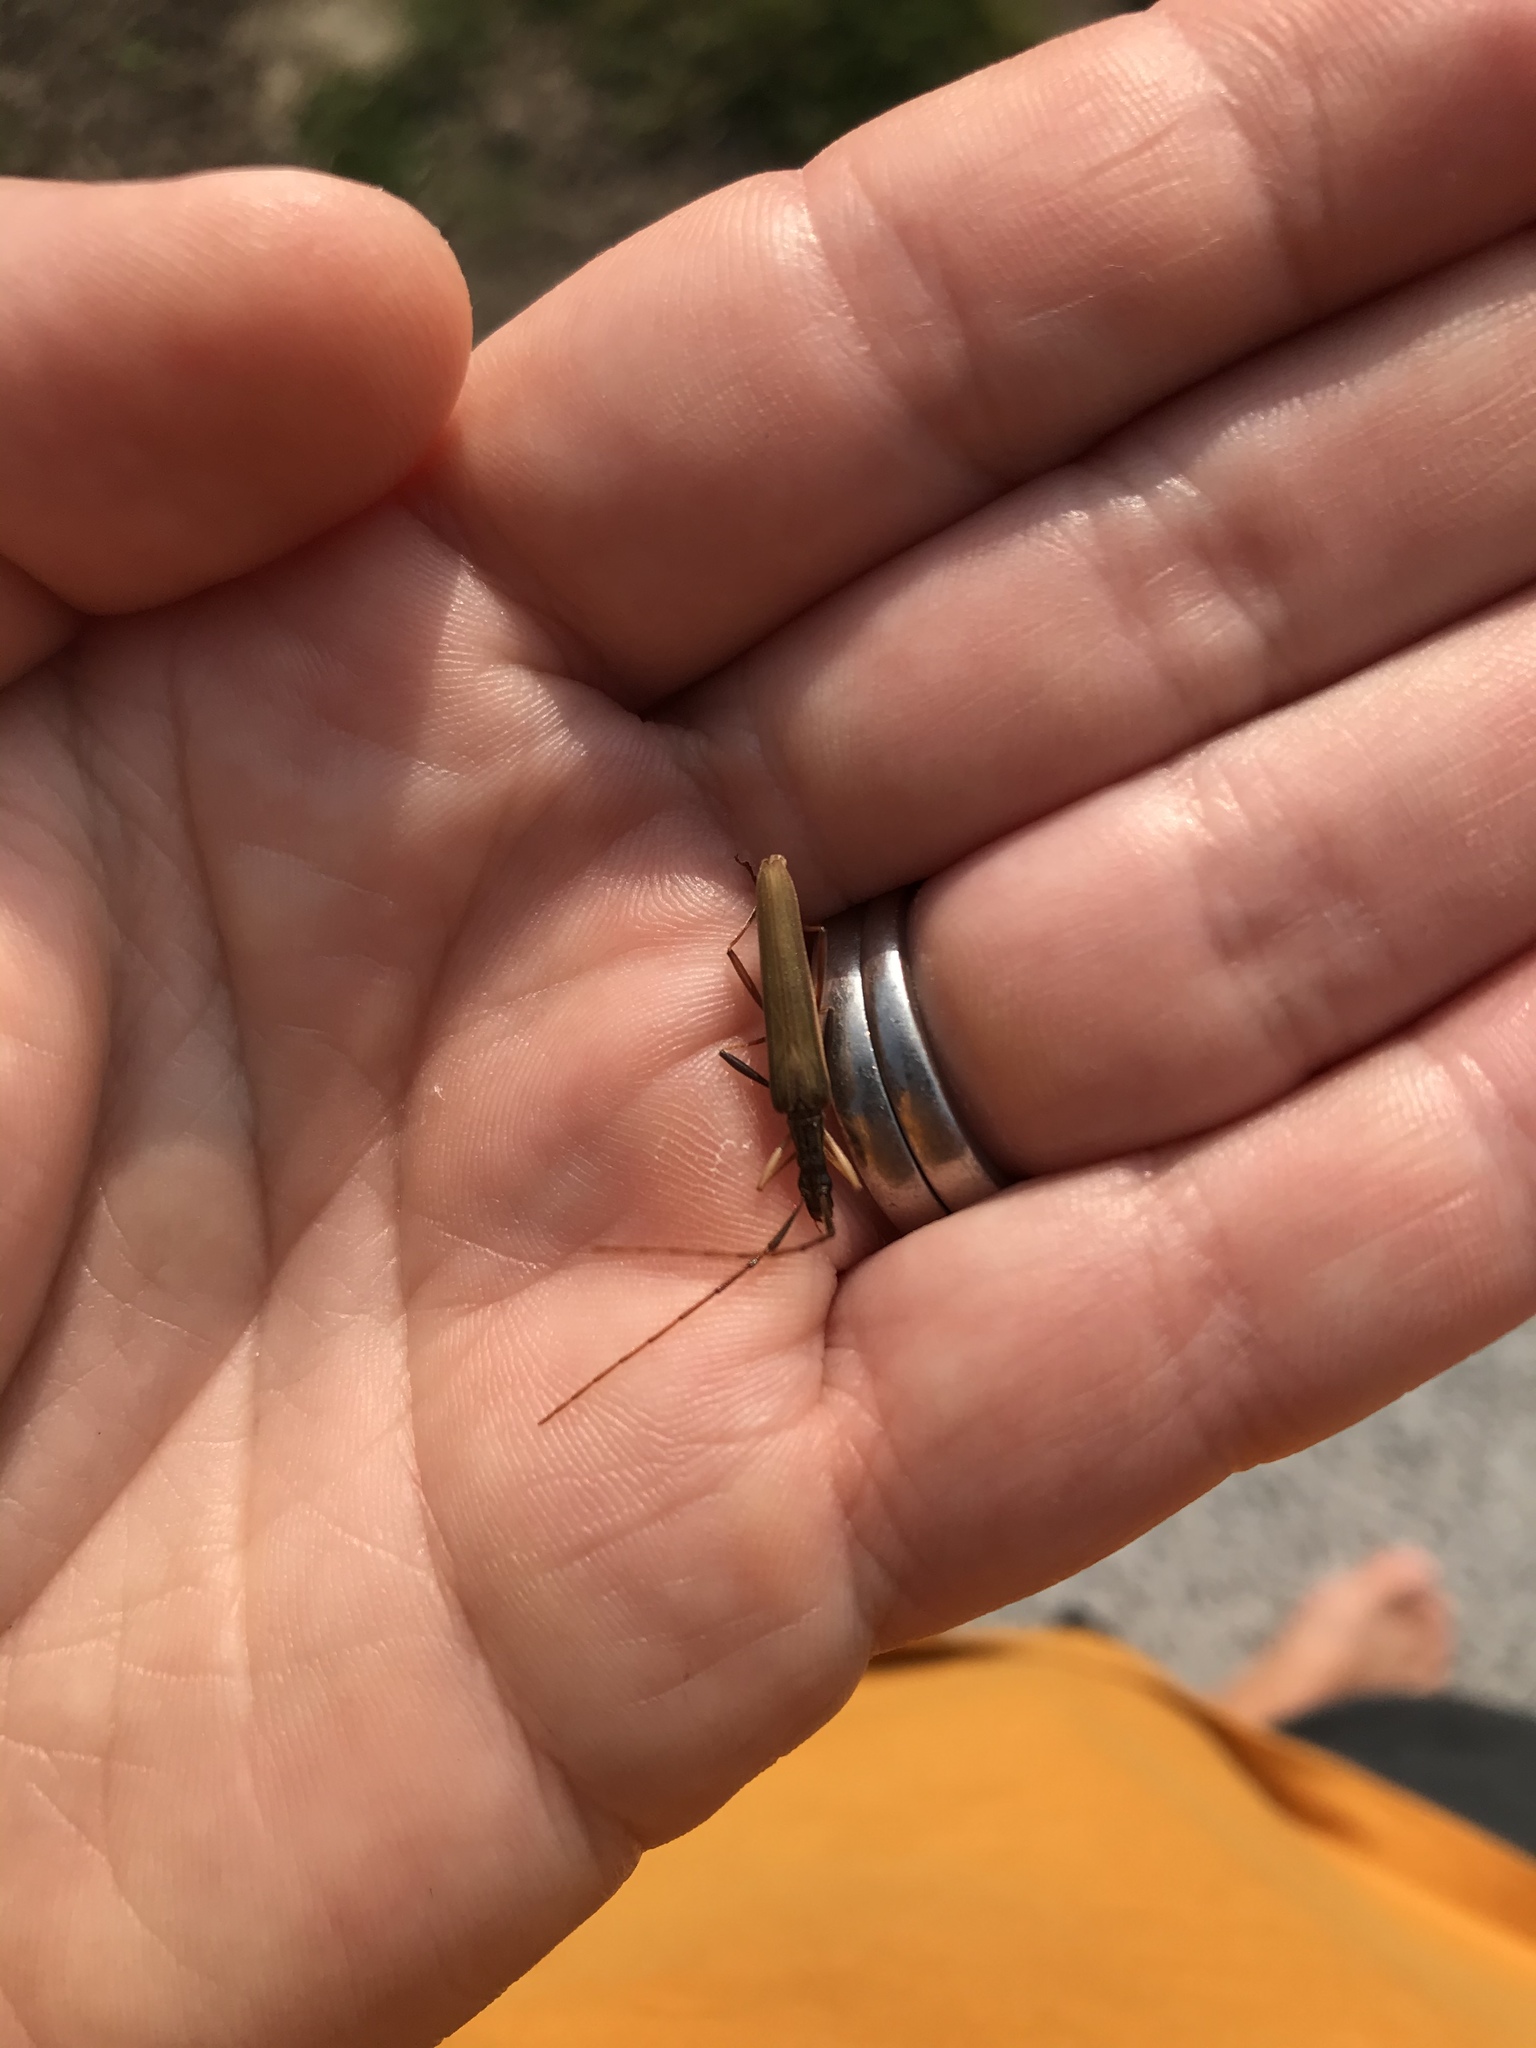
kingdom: Animalia
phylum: Arthropoda
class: Insecta
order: Coleoptera
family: Cerambycidae
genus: Stenopotes
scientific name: Stenopotes pallidus
